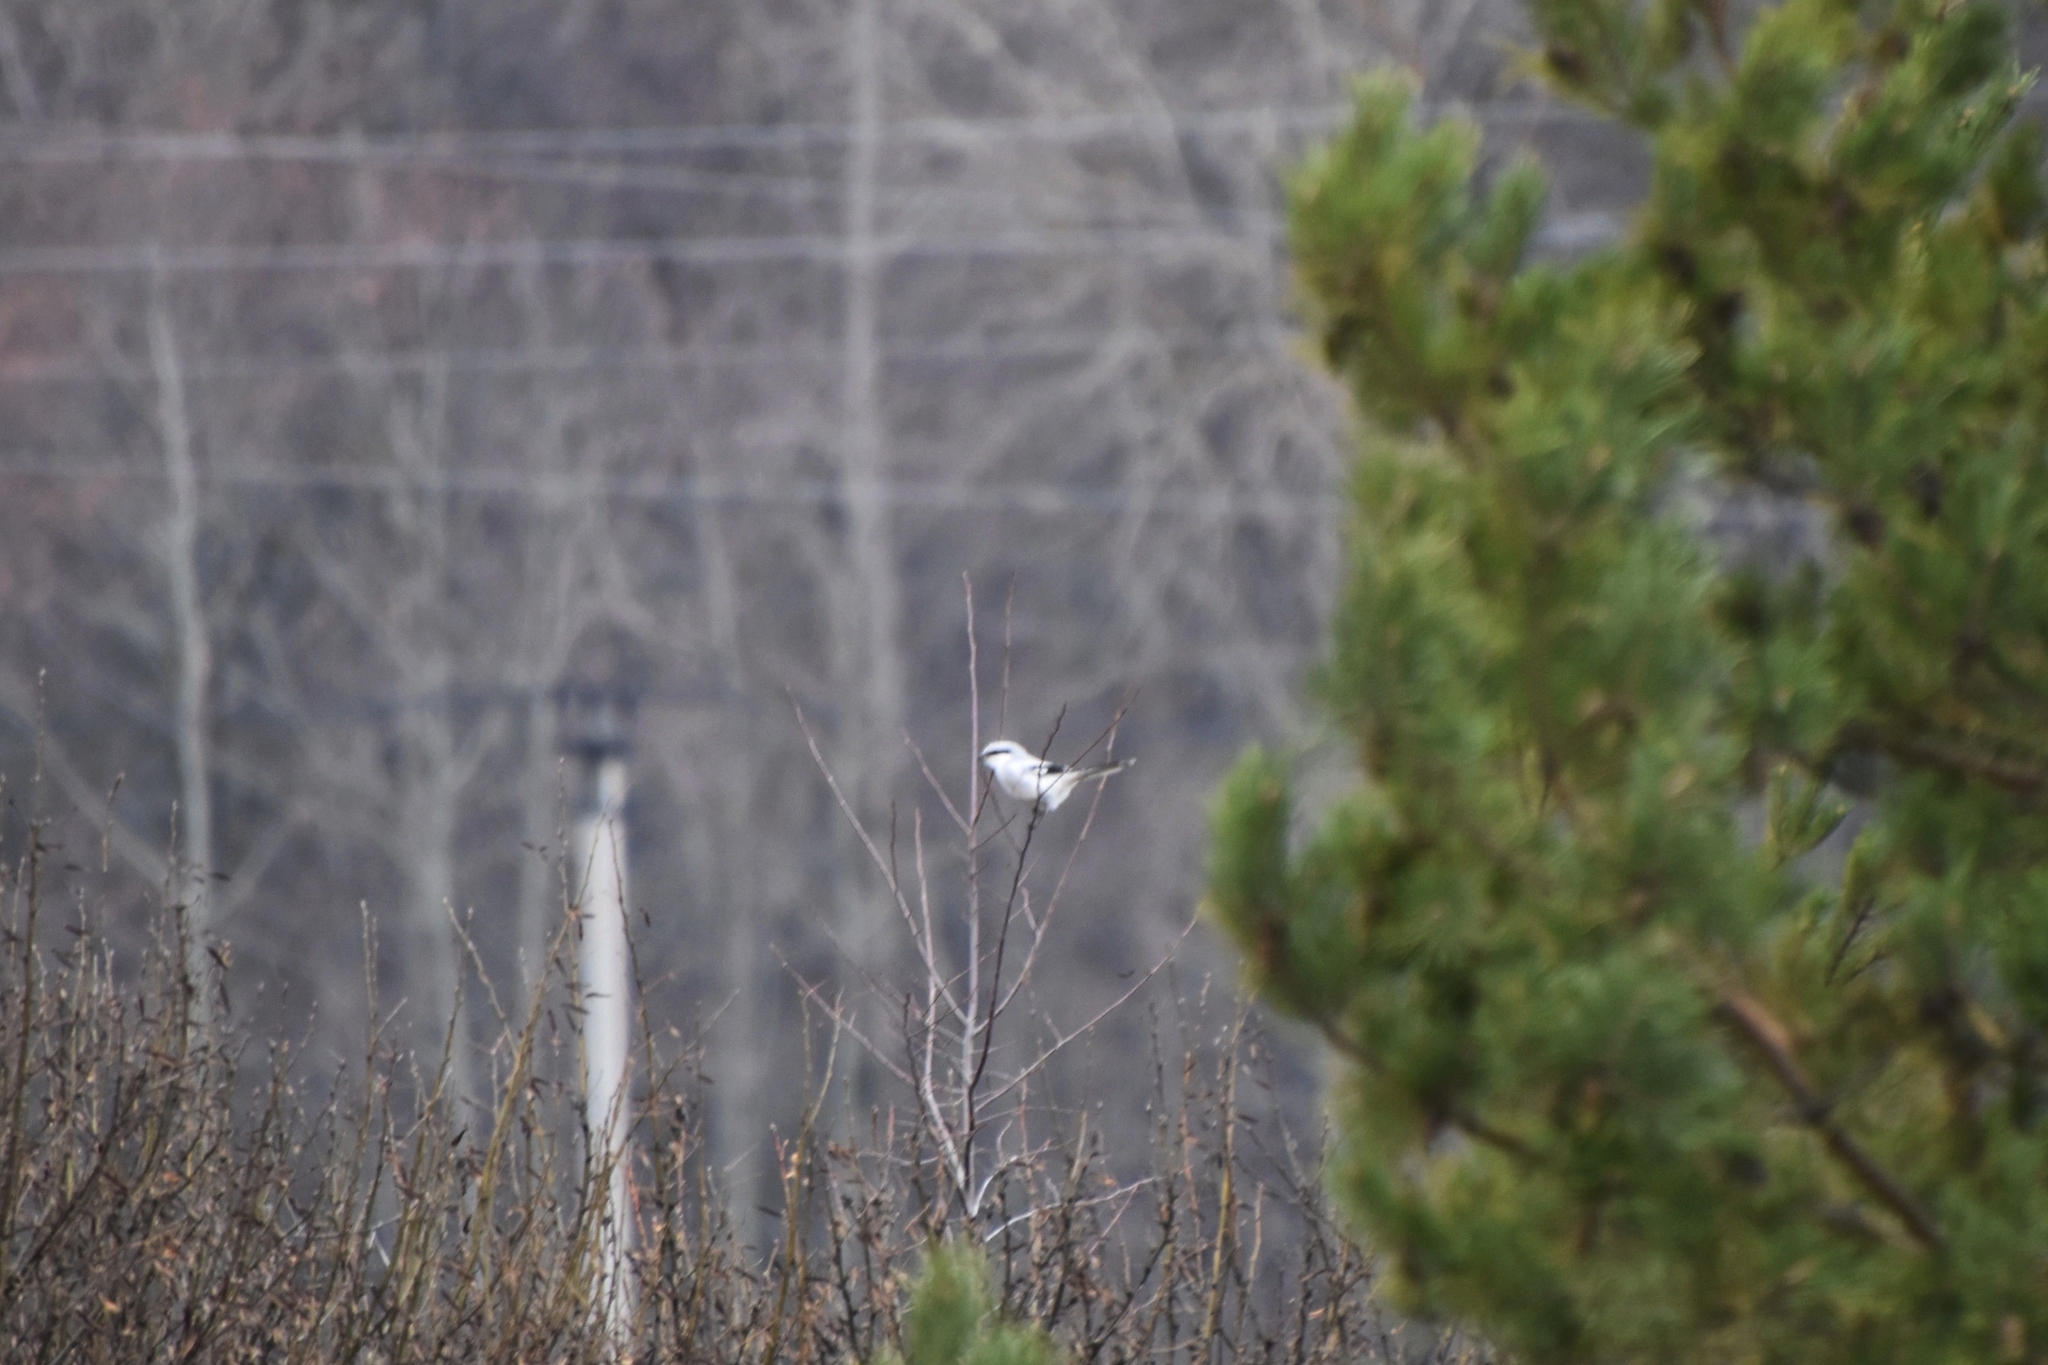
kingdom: Animalia
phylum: Chordata
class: Aves
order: Passeriformes
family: Laniidae
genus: Lanius
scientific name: Lanius excubitor
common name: Great grey shrike
